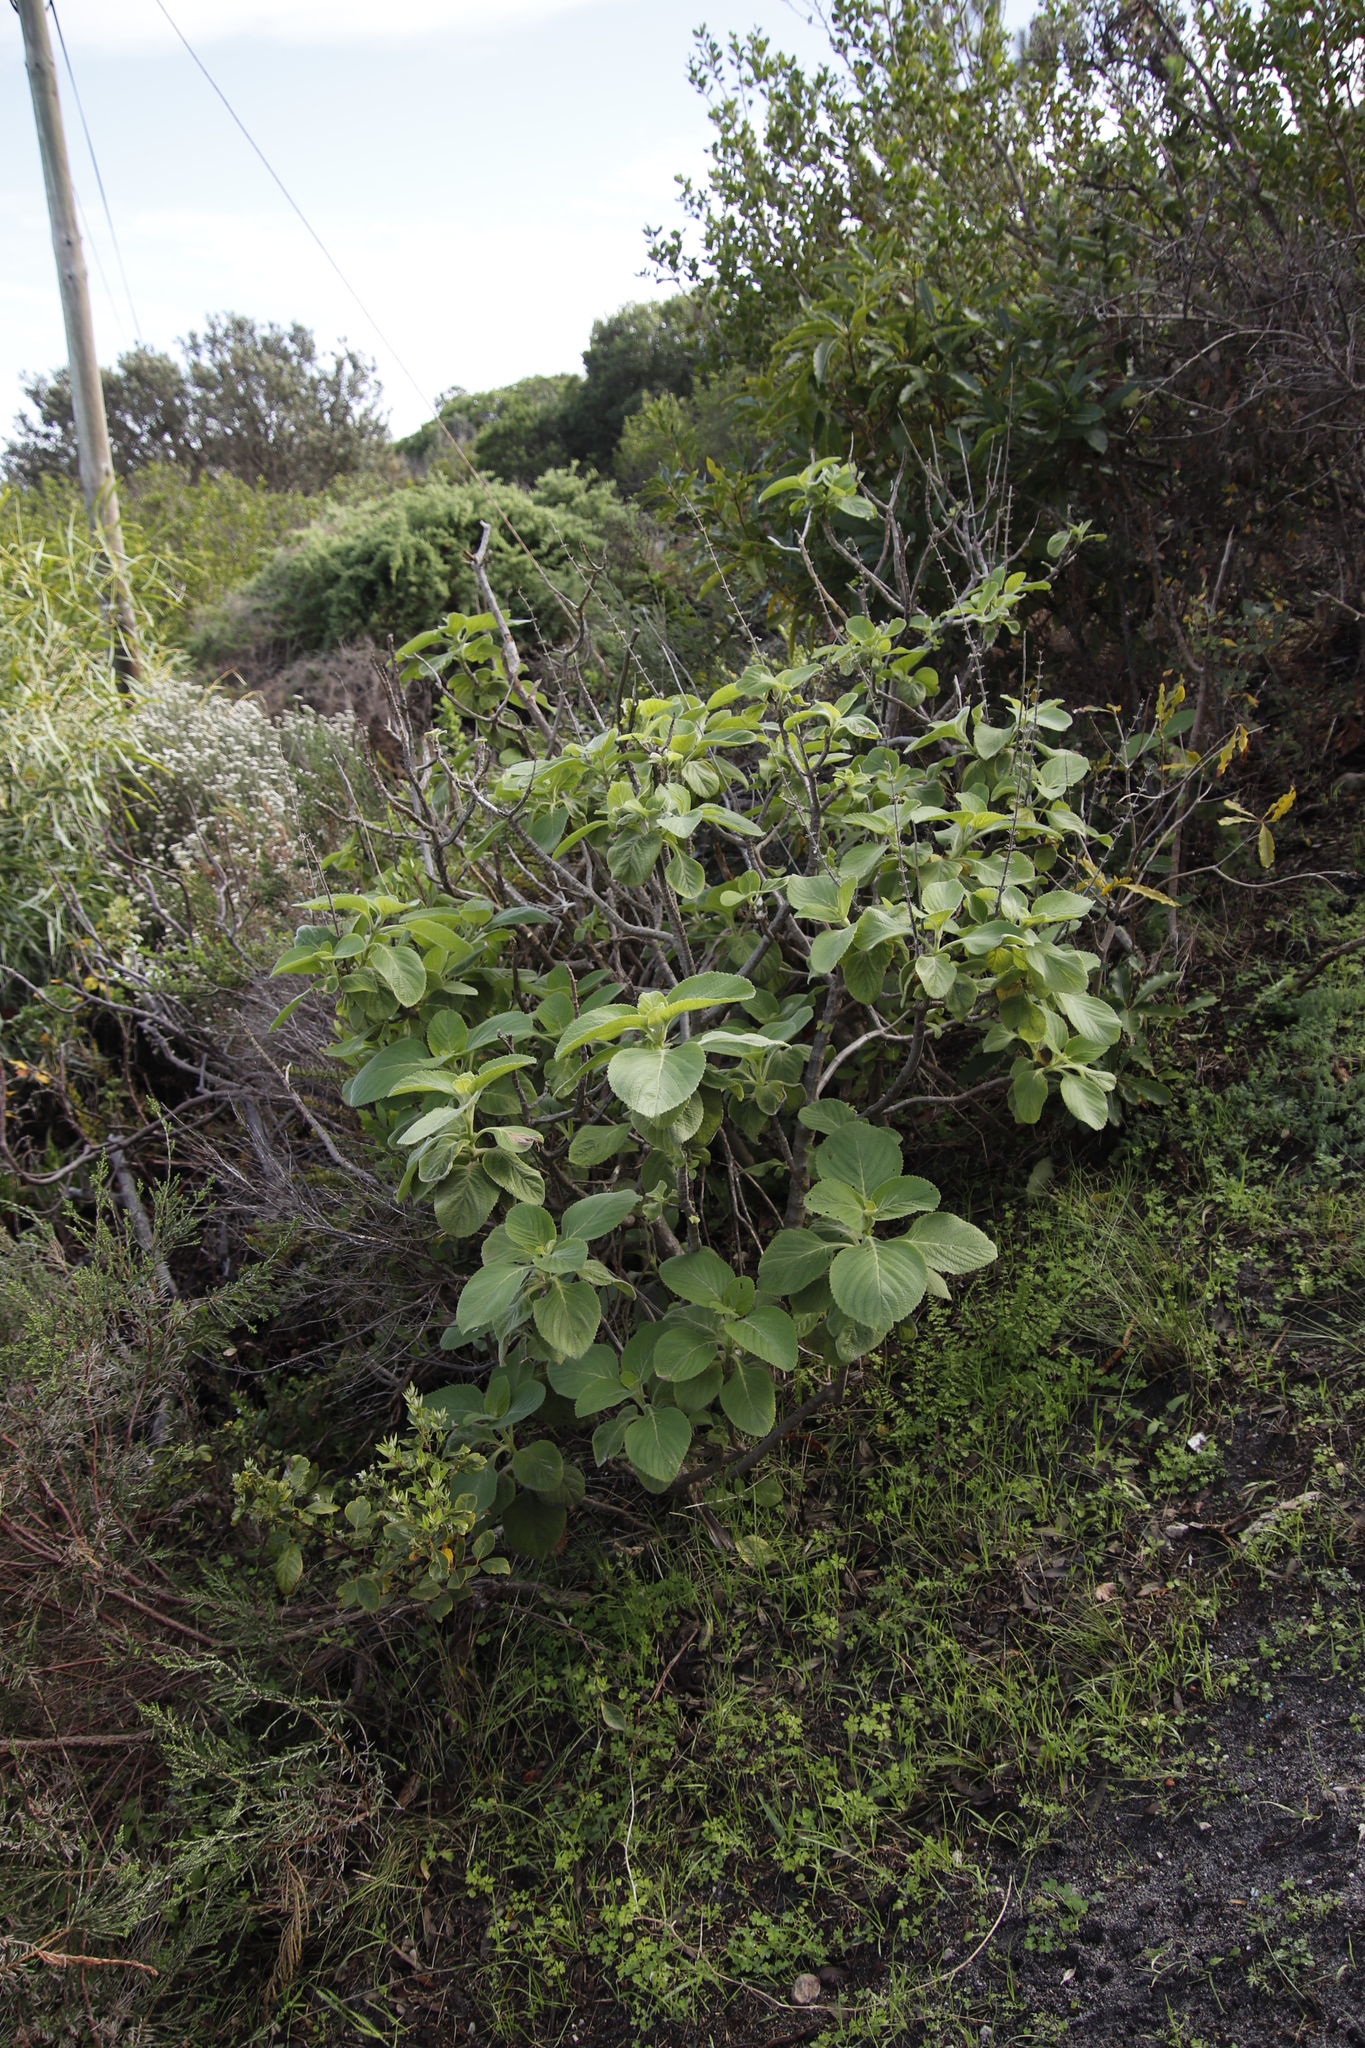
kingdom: Plantae
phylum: Tracheophyta
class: Magnoliopsida
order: Lamiales
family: Lamiaceae
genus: Coleus
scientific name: Coleus barbatus
